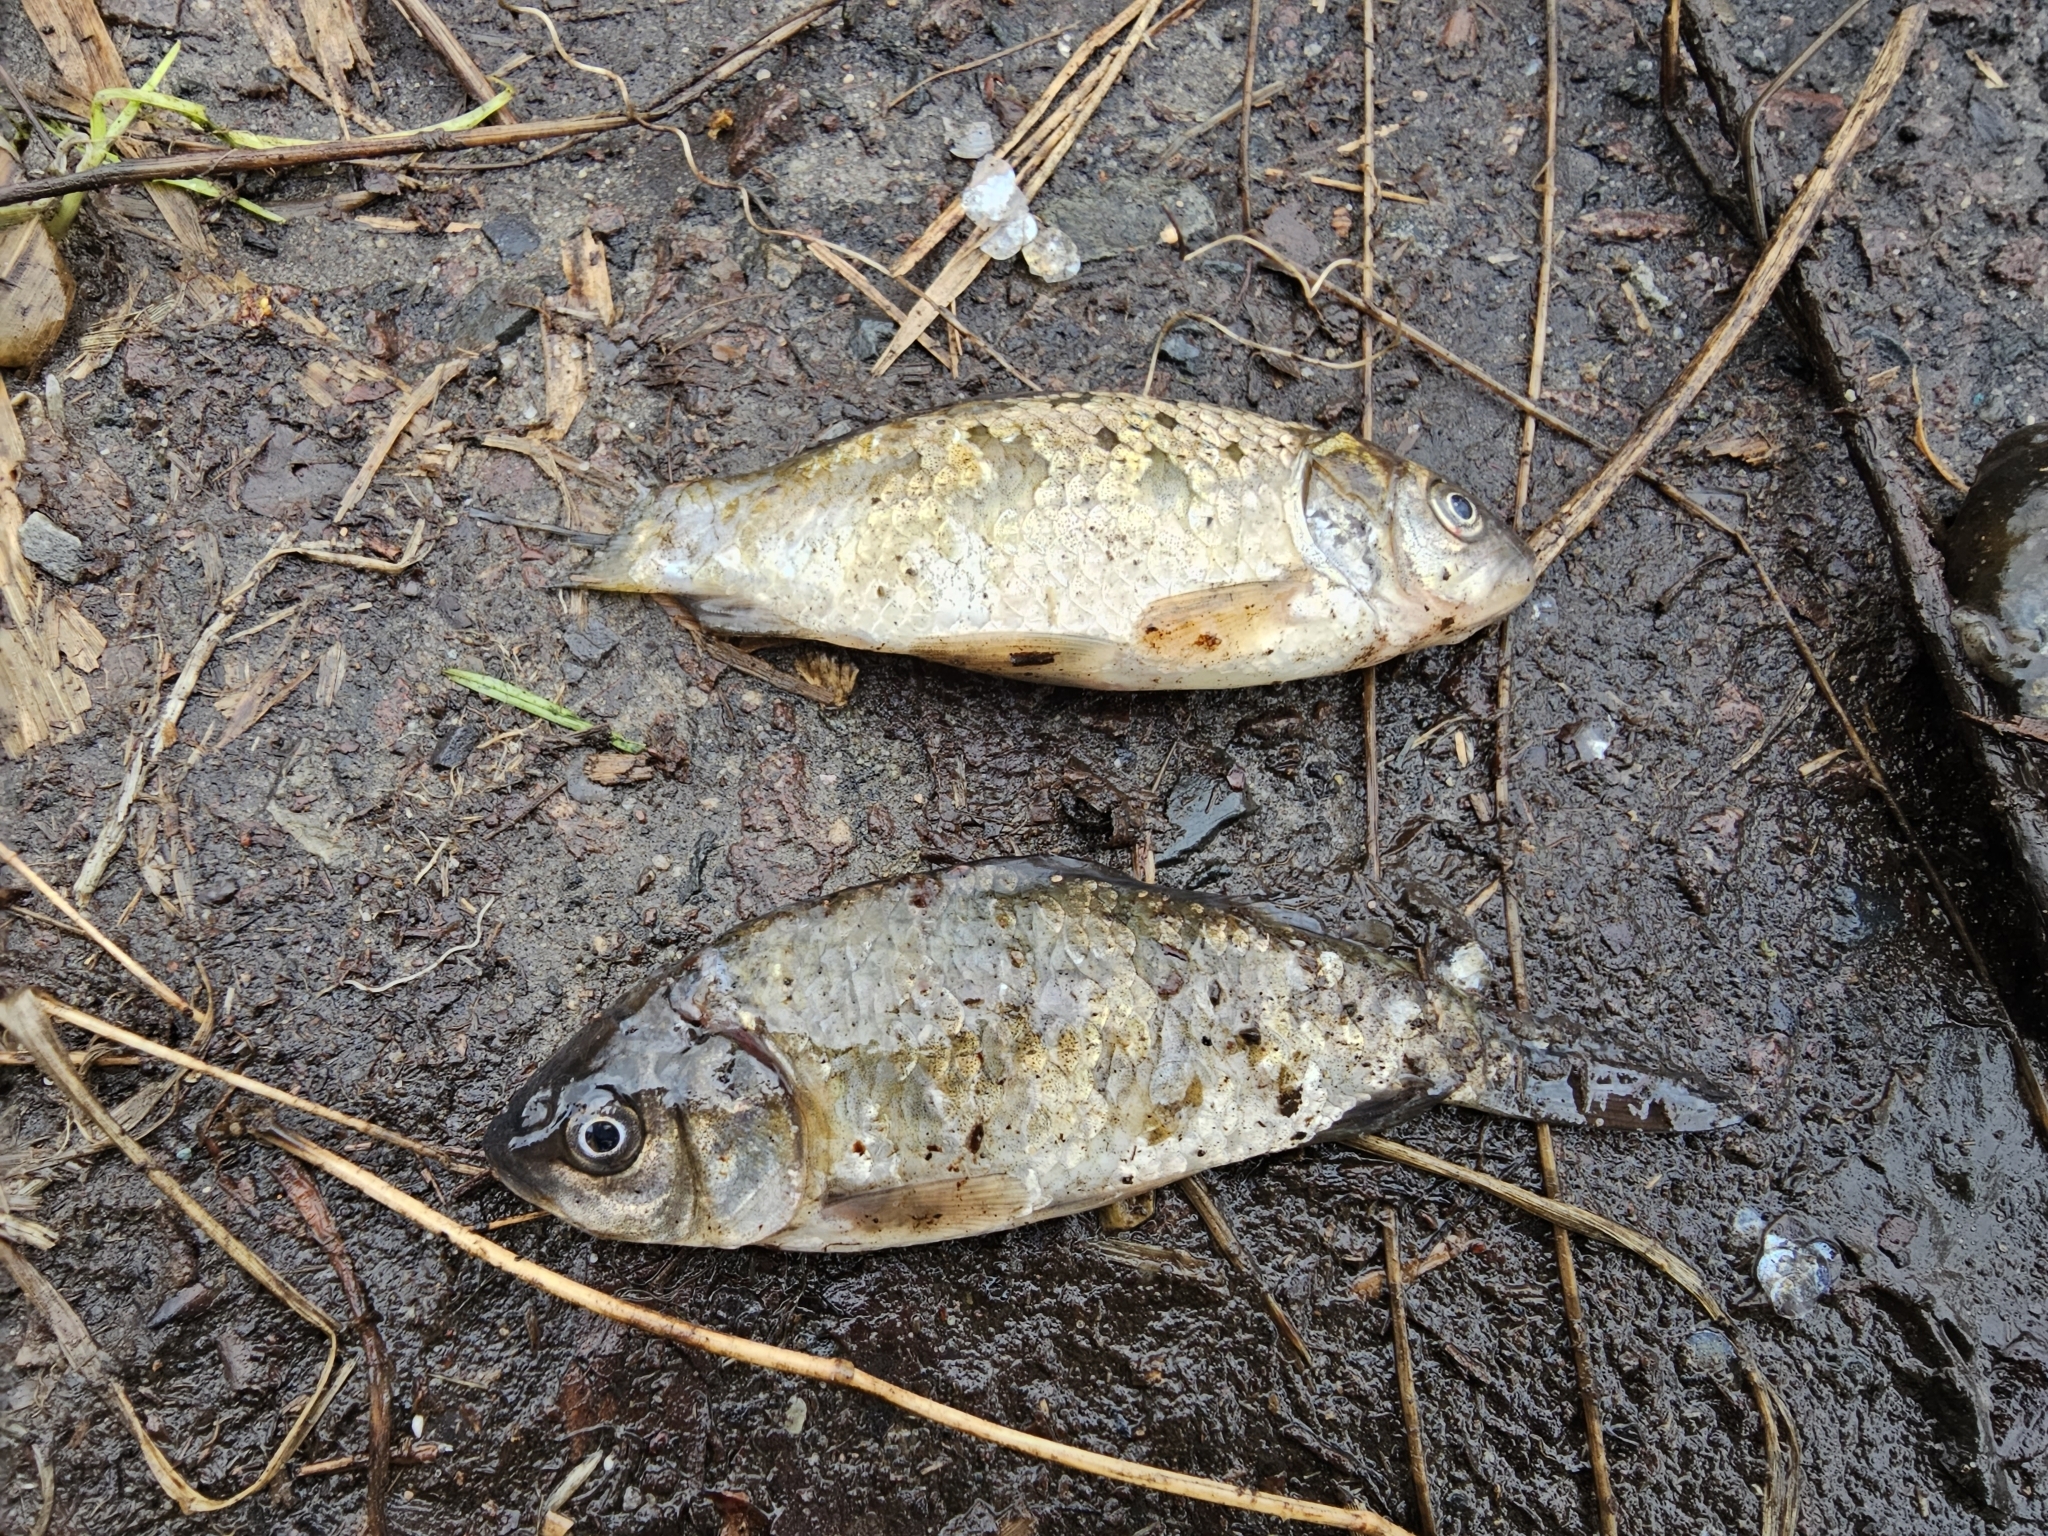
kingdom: Animalia
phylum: Chordata
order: Cypriniformes
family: Cyprinidae
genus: Carassius
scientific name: Carassius gibelio
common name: Prussian carp
